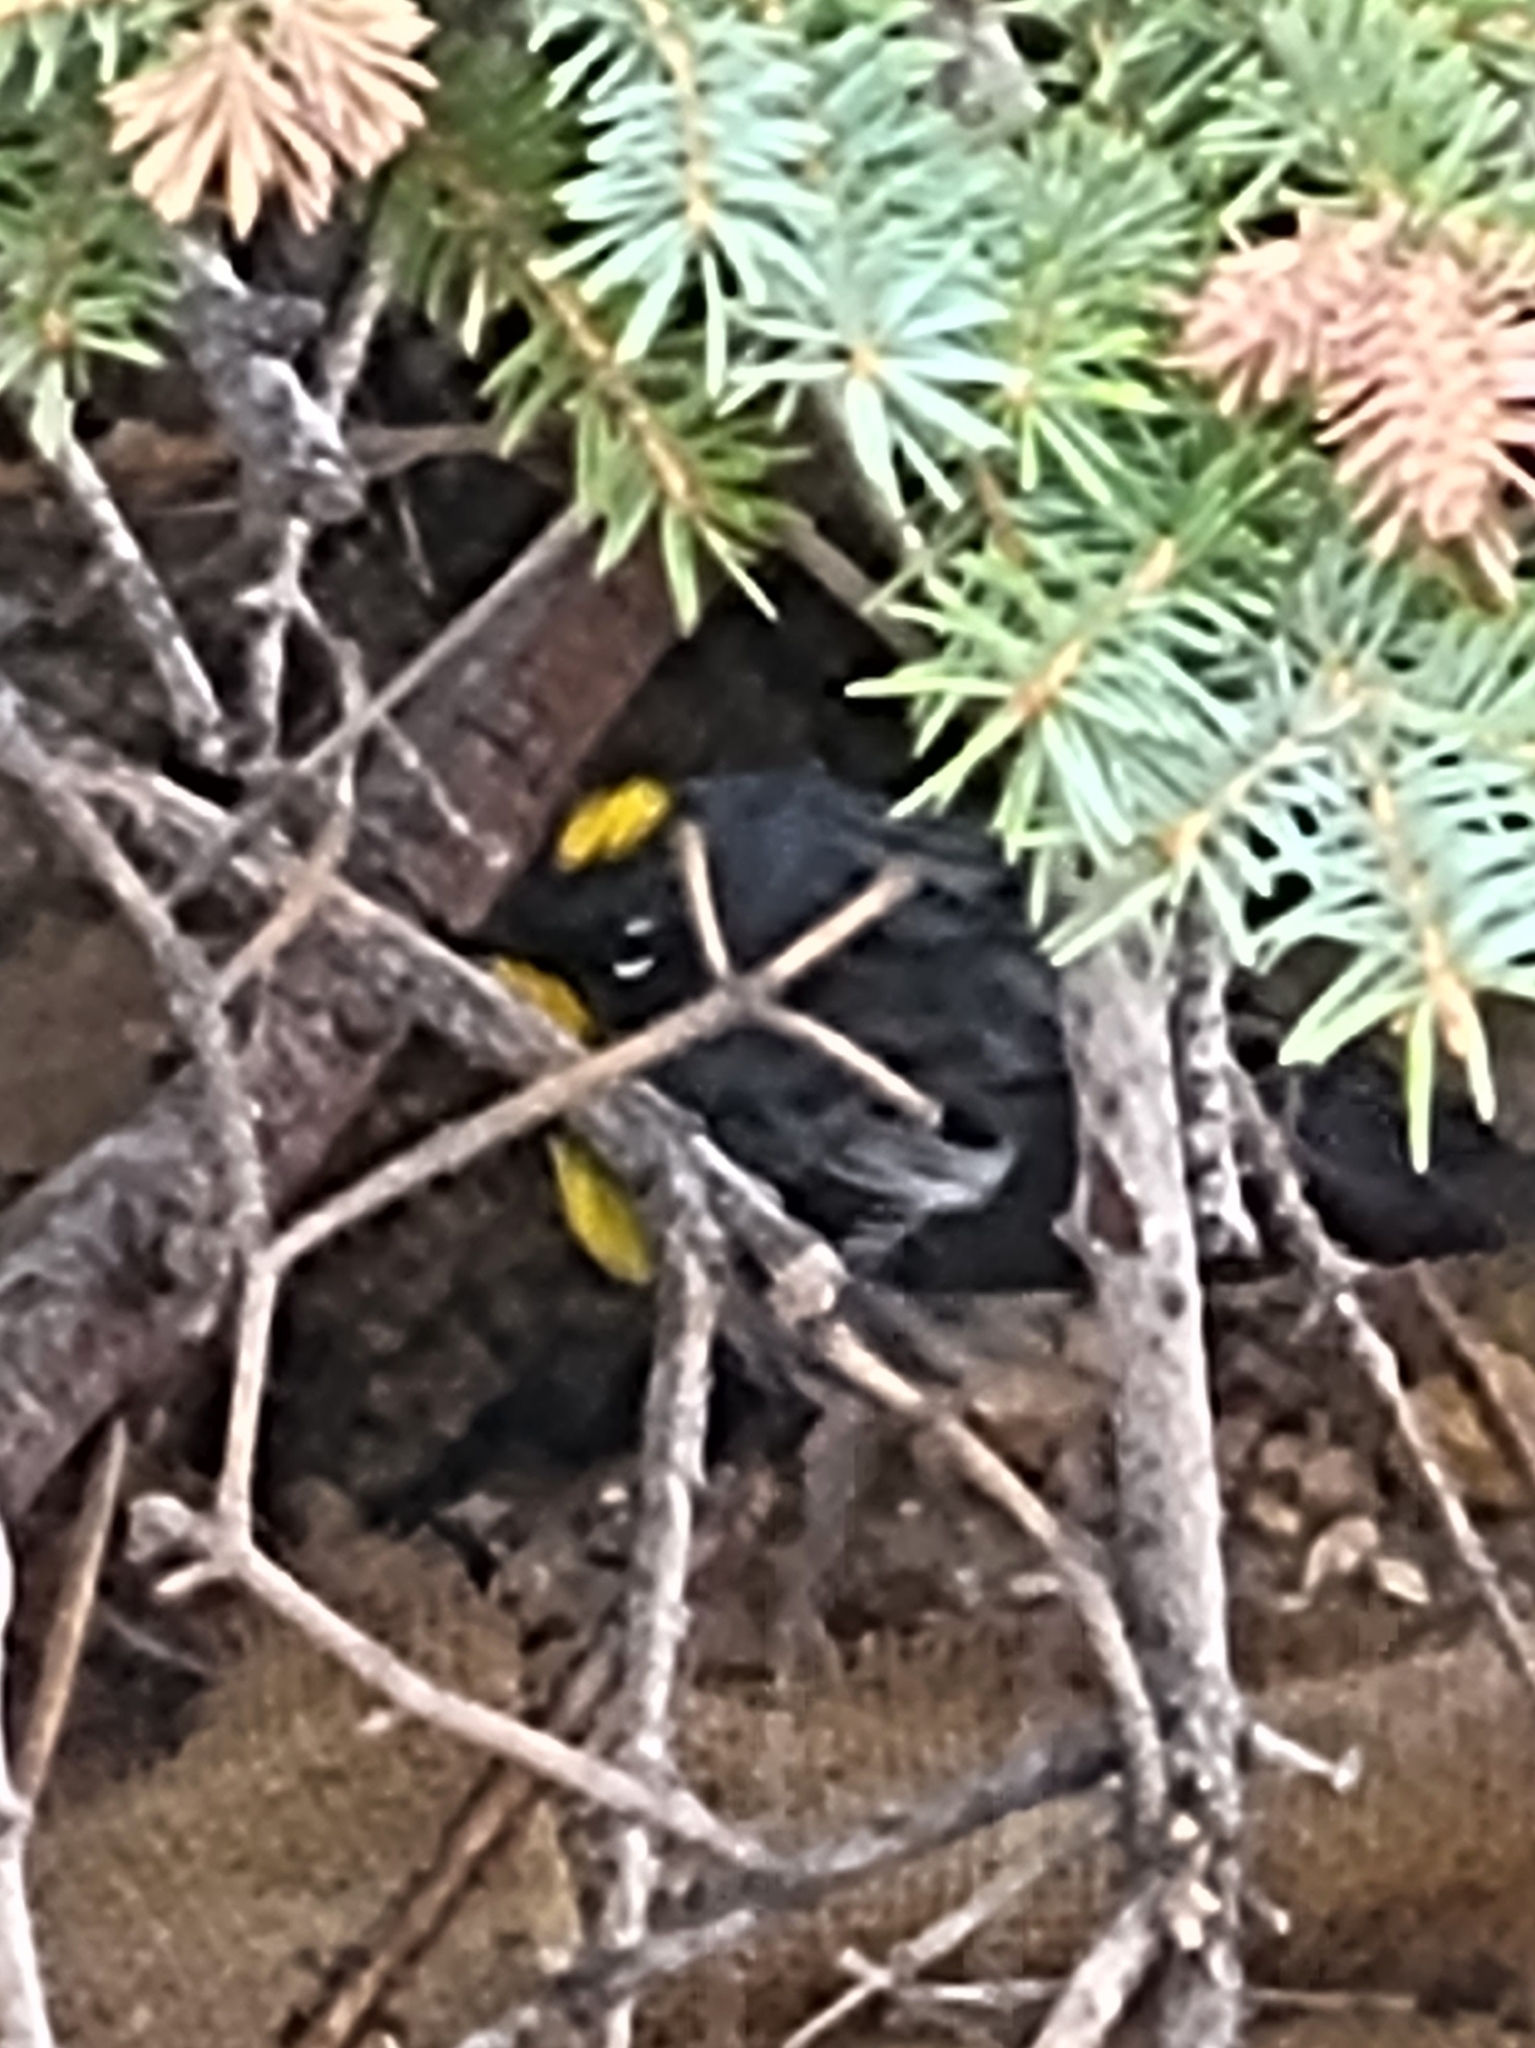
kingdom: Animalia
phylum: Chordata
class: Aves
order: Passeriformes
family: Parulidae
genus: Setophaga
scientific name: Setophaga coronata
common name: Myrtle warbler
